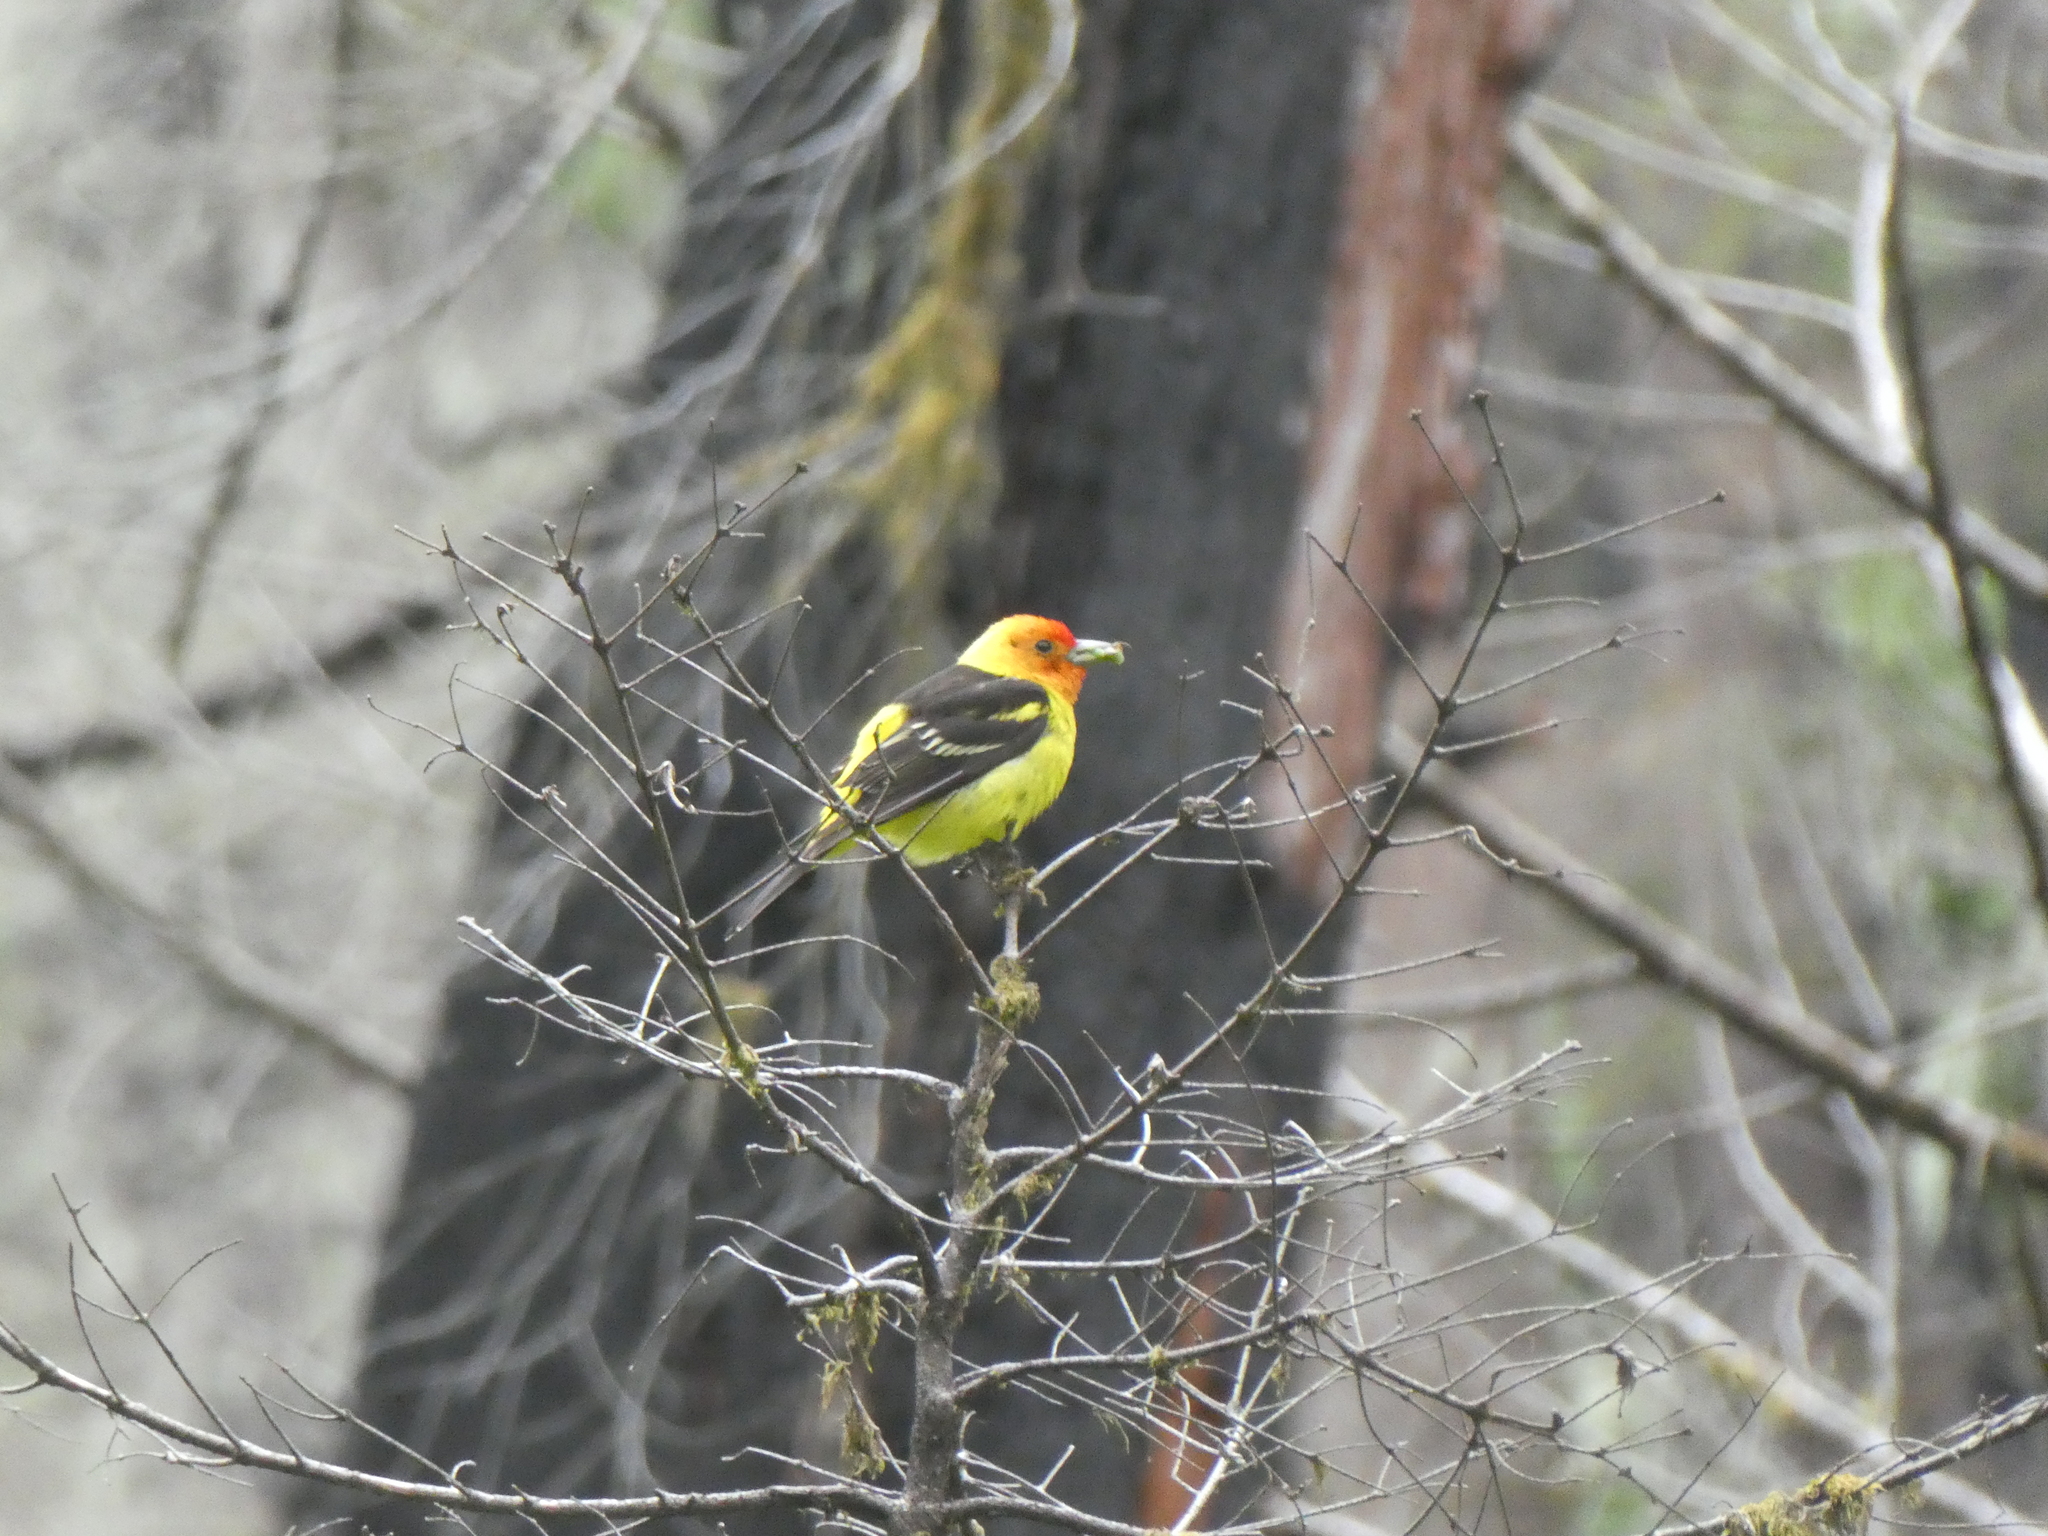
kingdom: Animalia
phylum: Chordata
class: Aves
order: Passeriformes
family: Cardinalidae
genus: Piranga
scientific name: Piranga ludoviciana
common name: Western tanager
